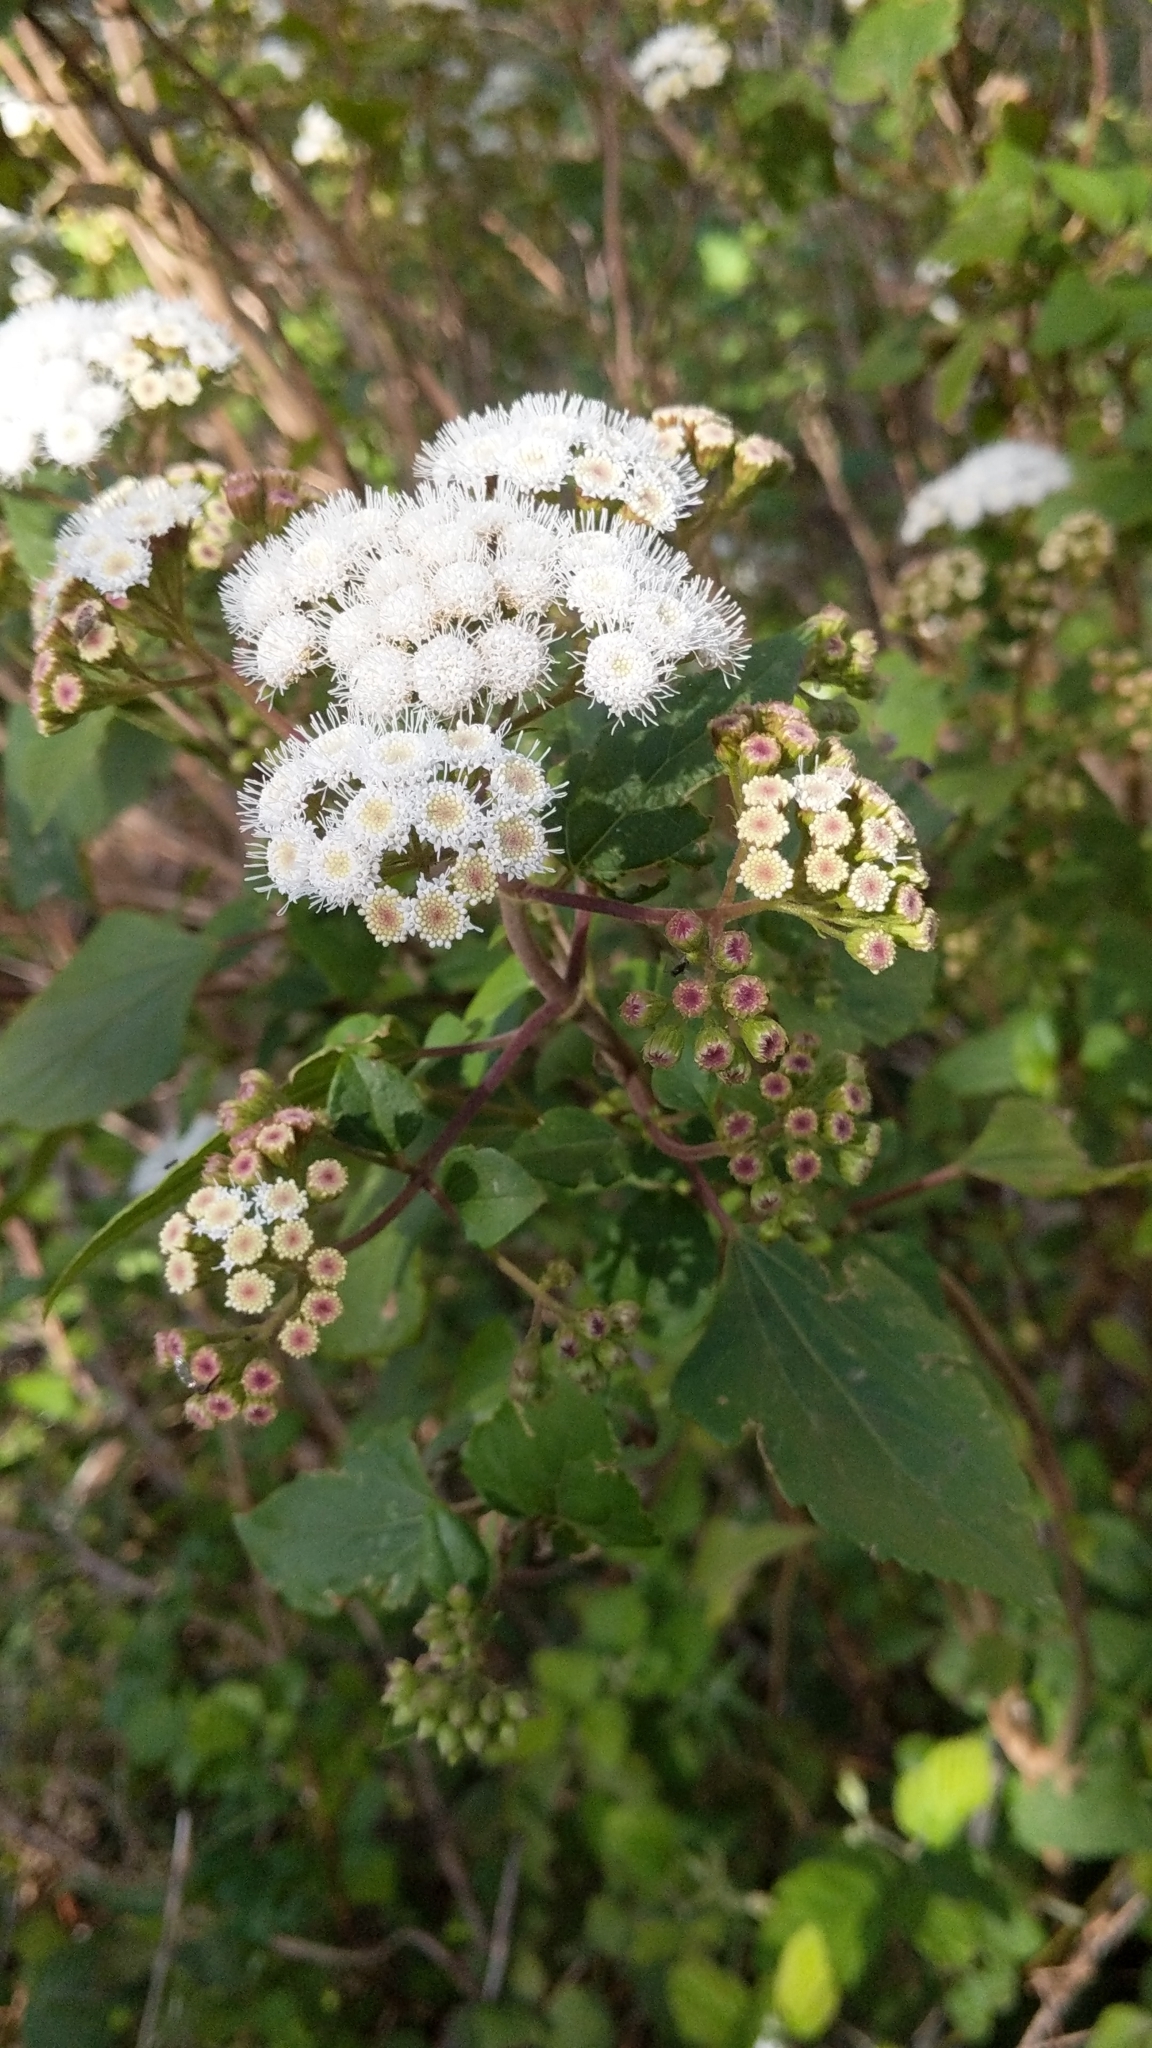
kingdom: Plantae
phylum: Tracheophyta
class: Magnoliopsida
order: Asterales
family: Asteraceae
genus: Ageratina
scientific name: Ageratina adenophora
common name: Sticky snakeroot
